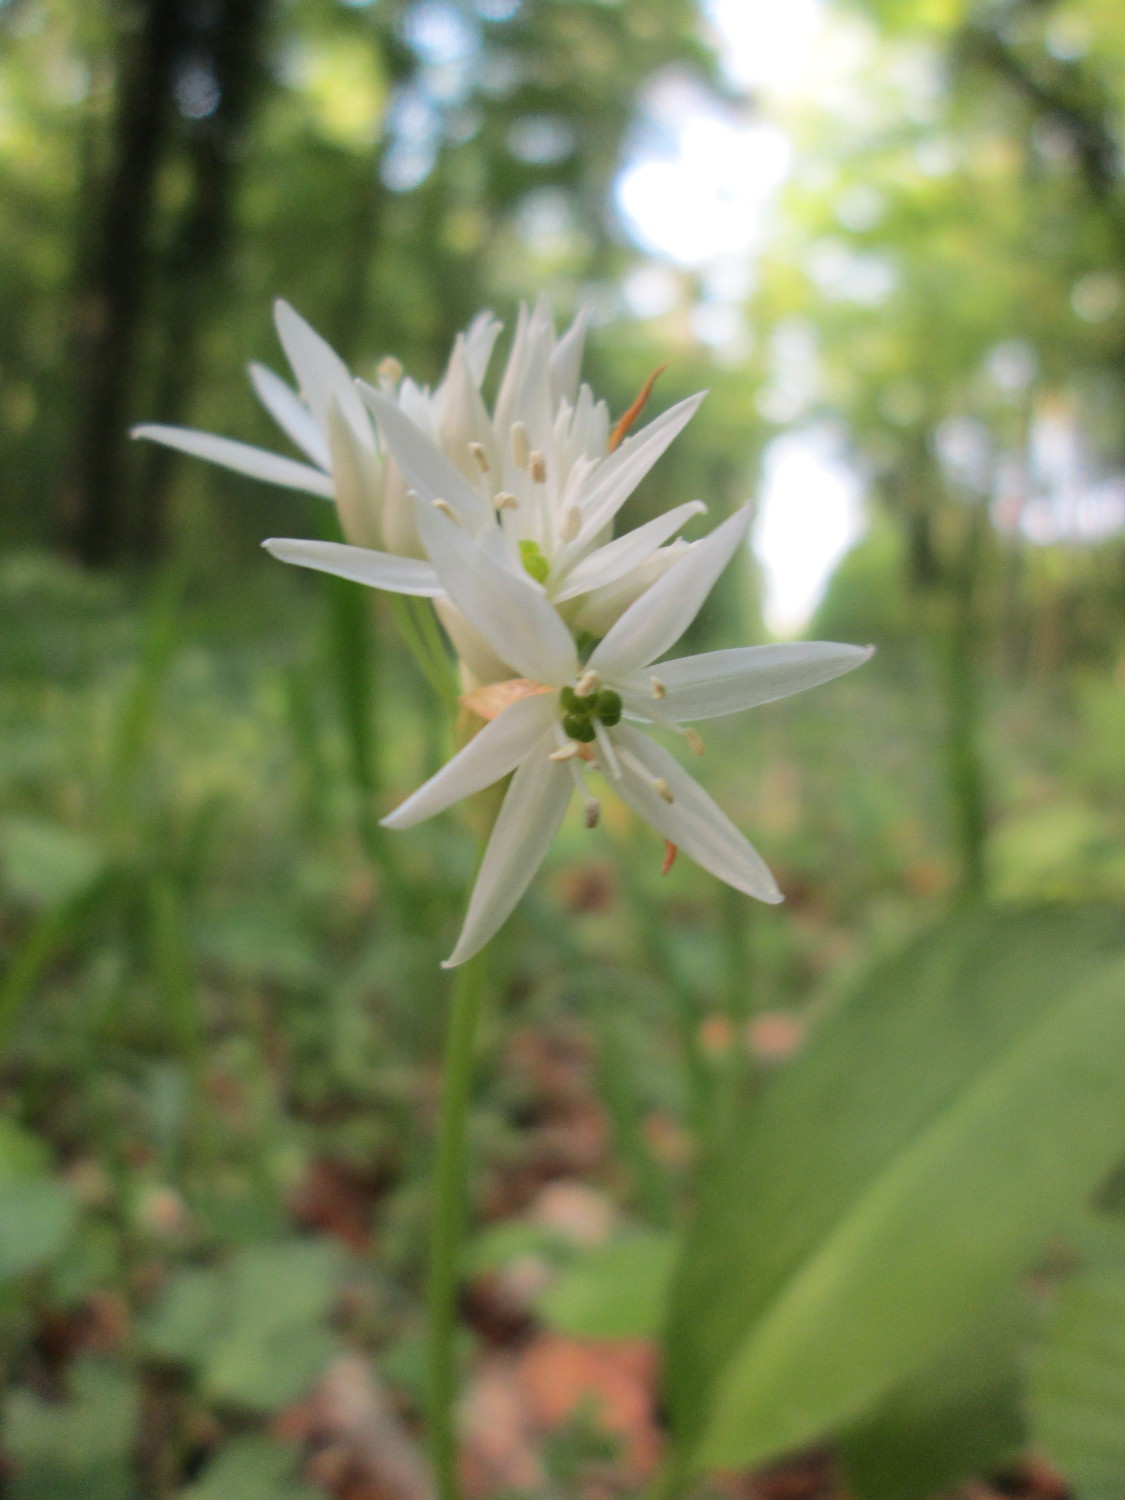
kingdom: Plantae
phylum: Tracheophyta
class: Liliopsida
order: Asparagales
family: Amaryllidaceae
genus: Allium
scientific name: Allium ursinum
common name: Ramsons
